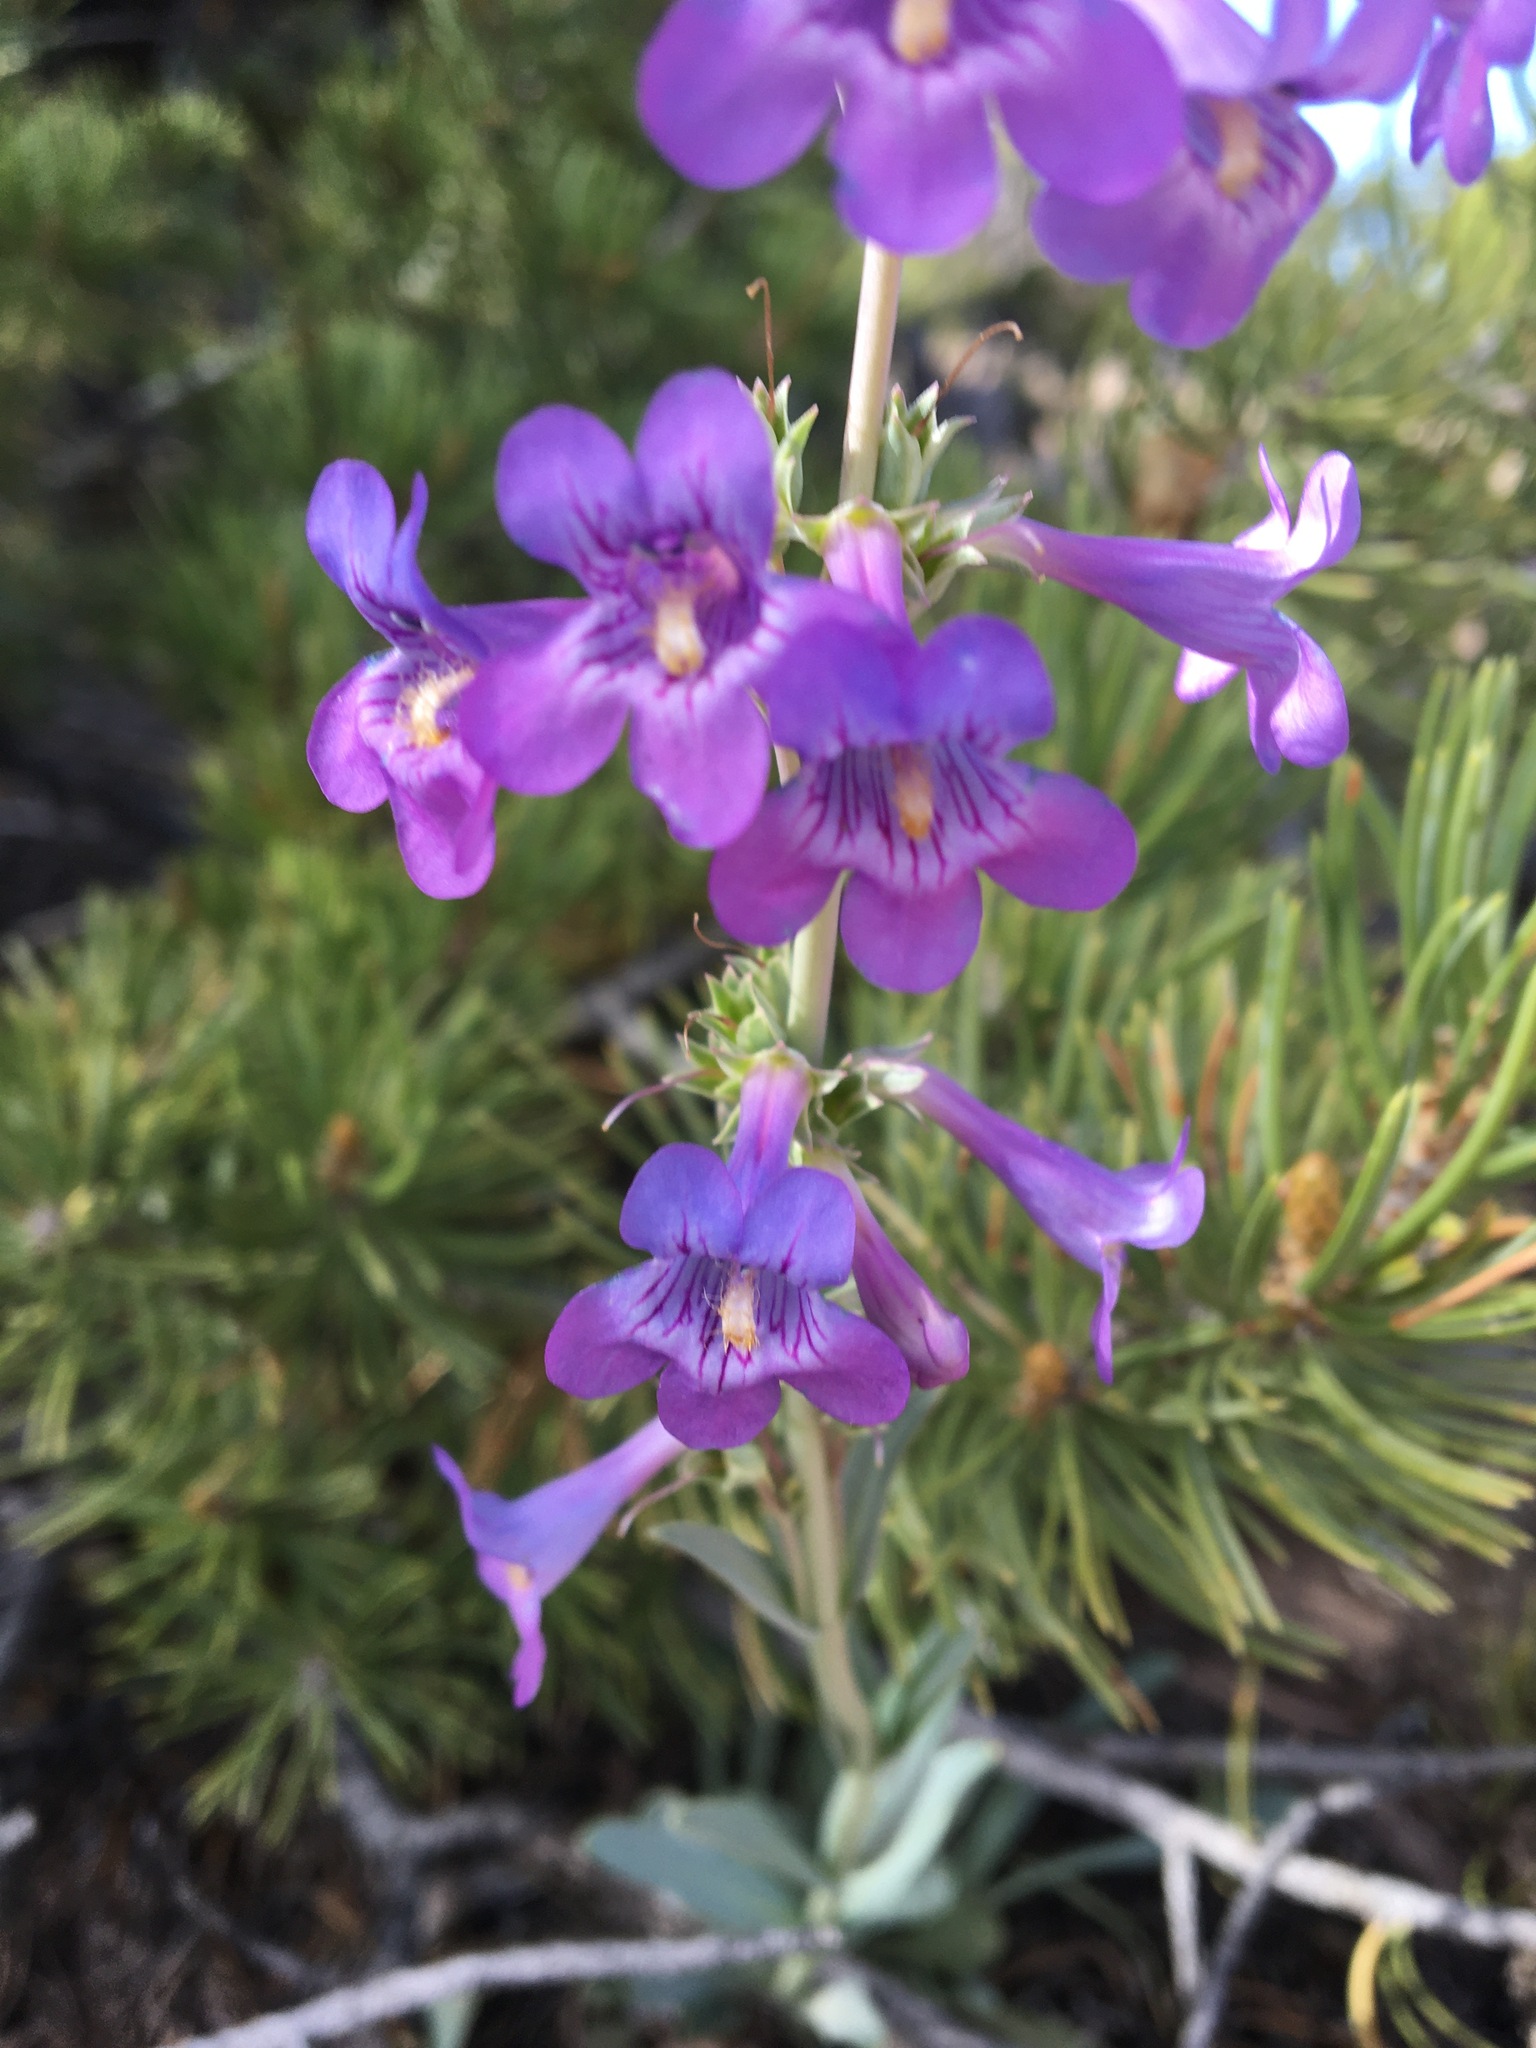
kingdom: Plantae
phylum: Tracheophyta
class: Magnoliopsida
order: Lamiales
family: Plantaginaceae
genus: Penstemon
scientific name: Penstemon fendleri
